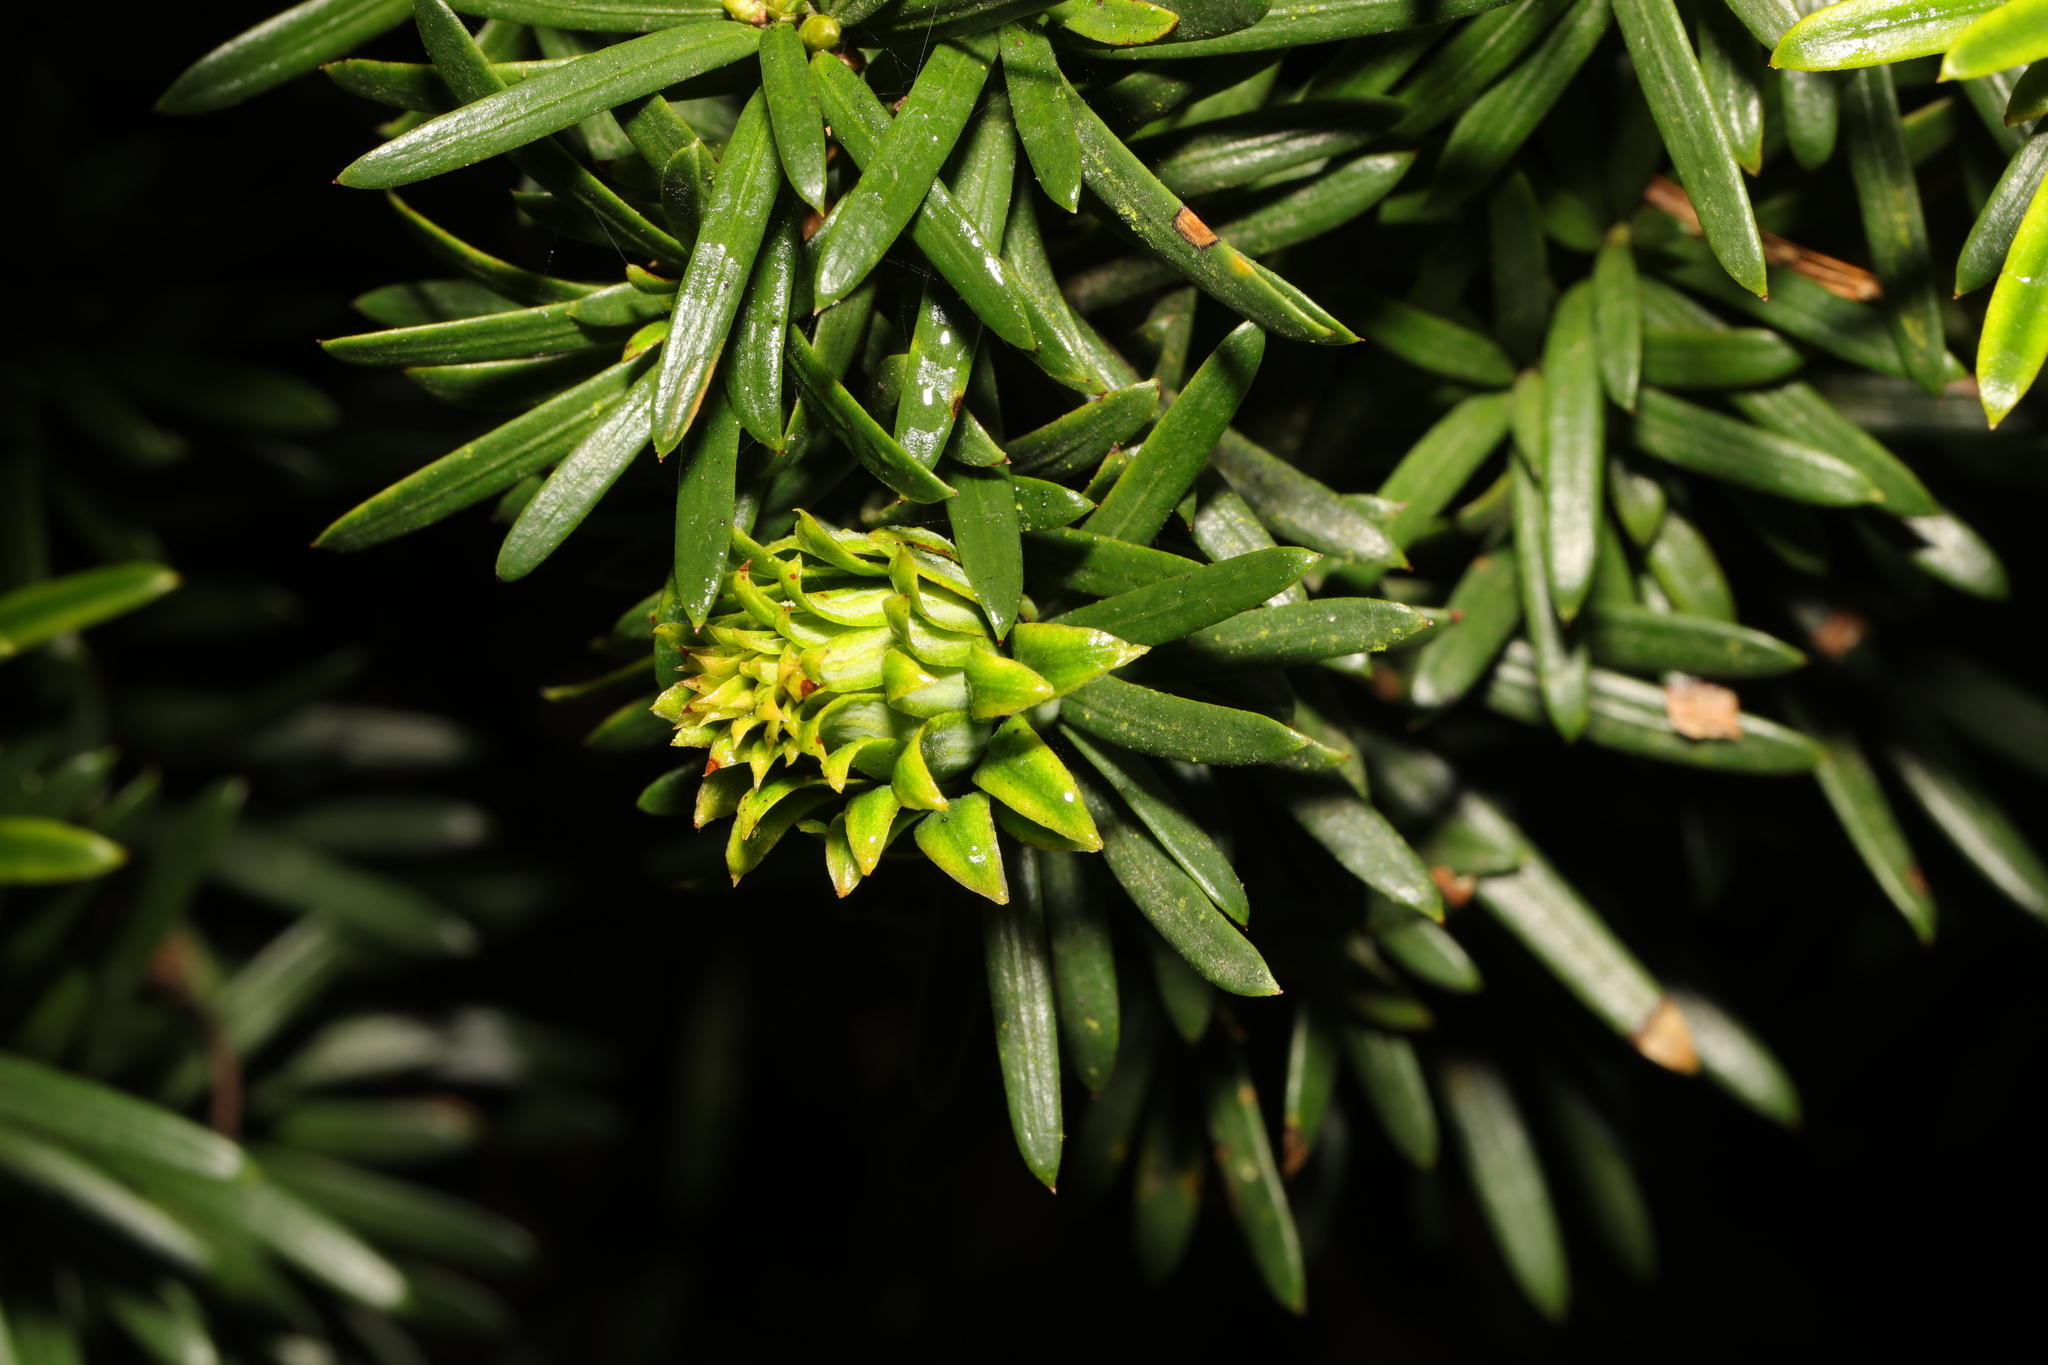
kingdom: Animalia
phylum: Arthropoda
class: Insecta
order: Diptera
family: Cecidomyiidae
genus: Taxomyia
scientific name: Taxomyia taxi
